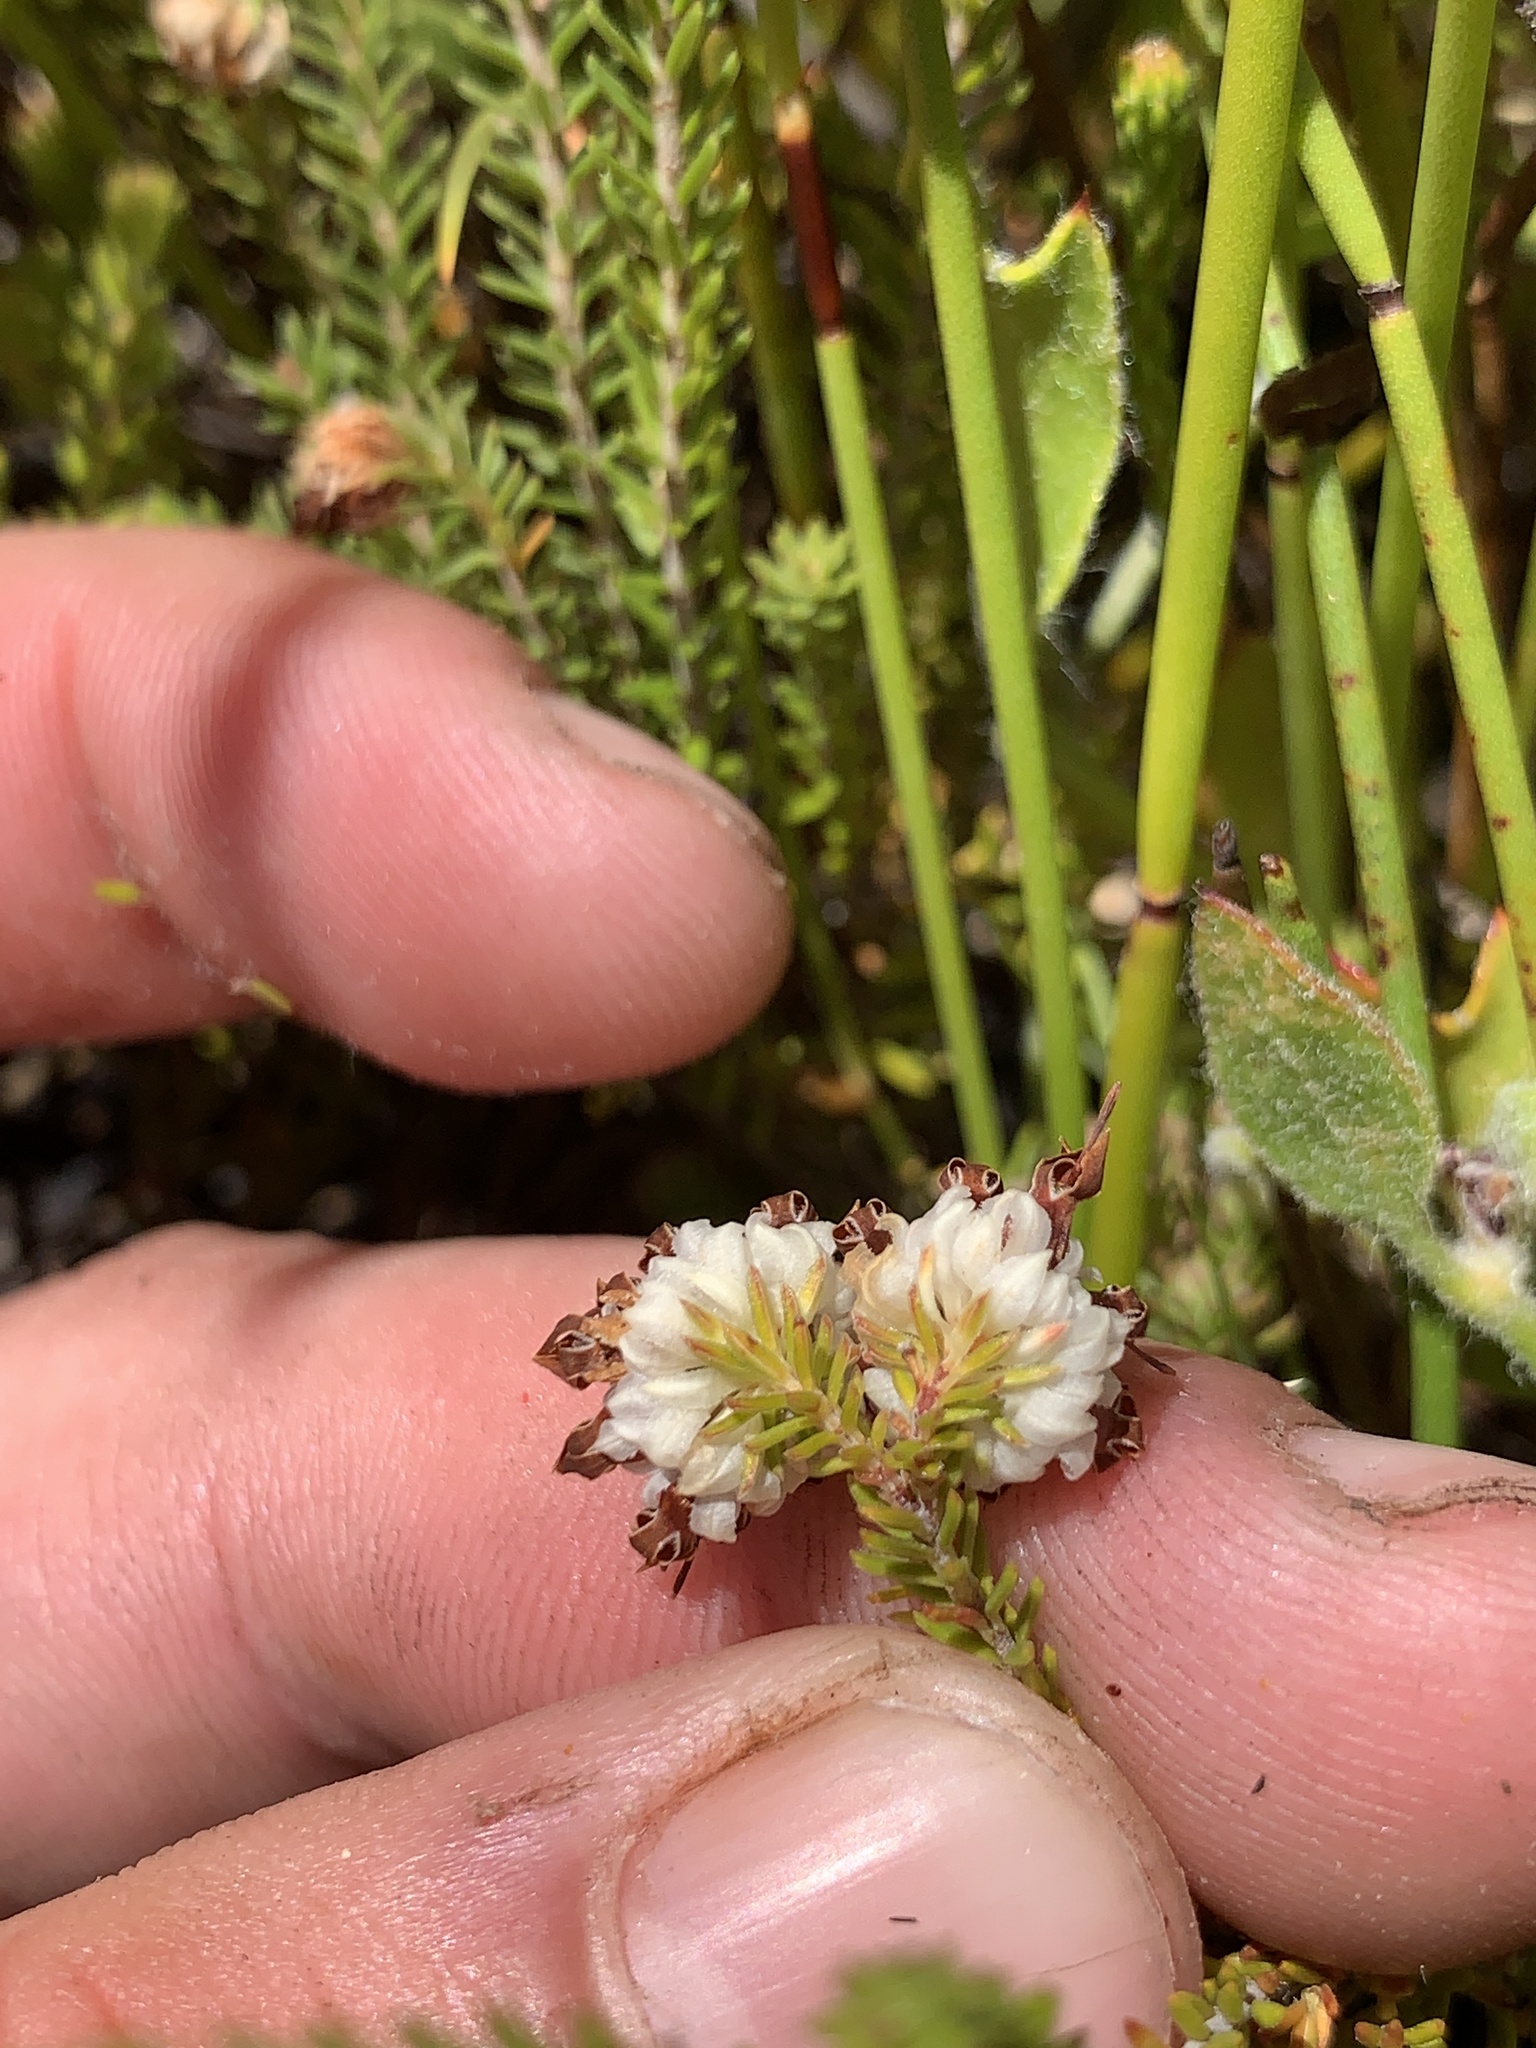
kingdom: Plantae
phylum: Tracheophyta
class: Magnoliopsida
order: Ericales
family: Ericaceae
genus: Erica
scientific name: Erica cumuliflora
